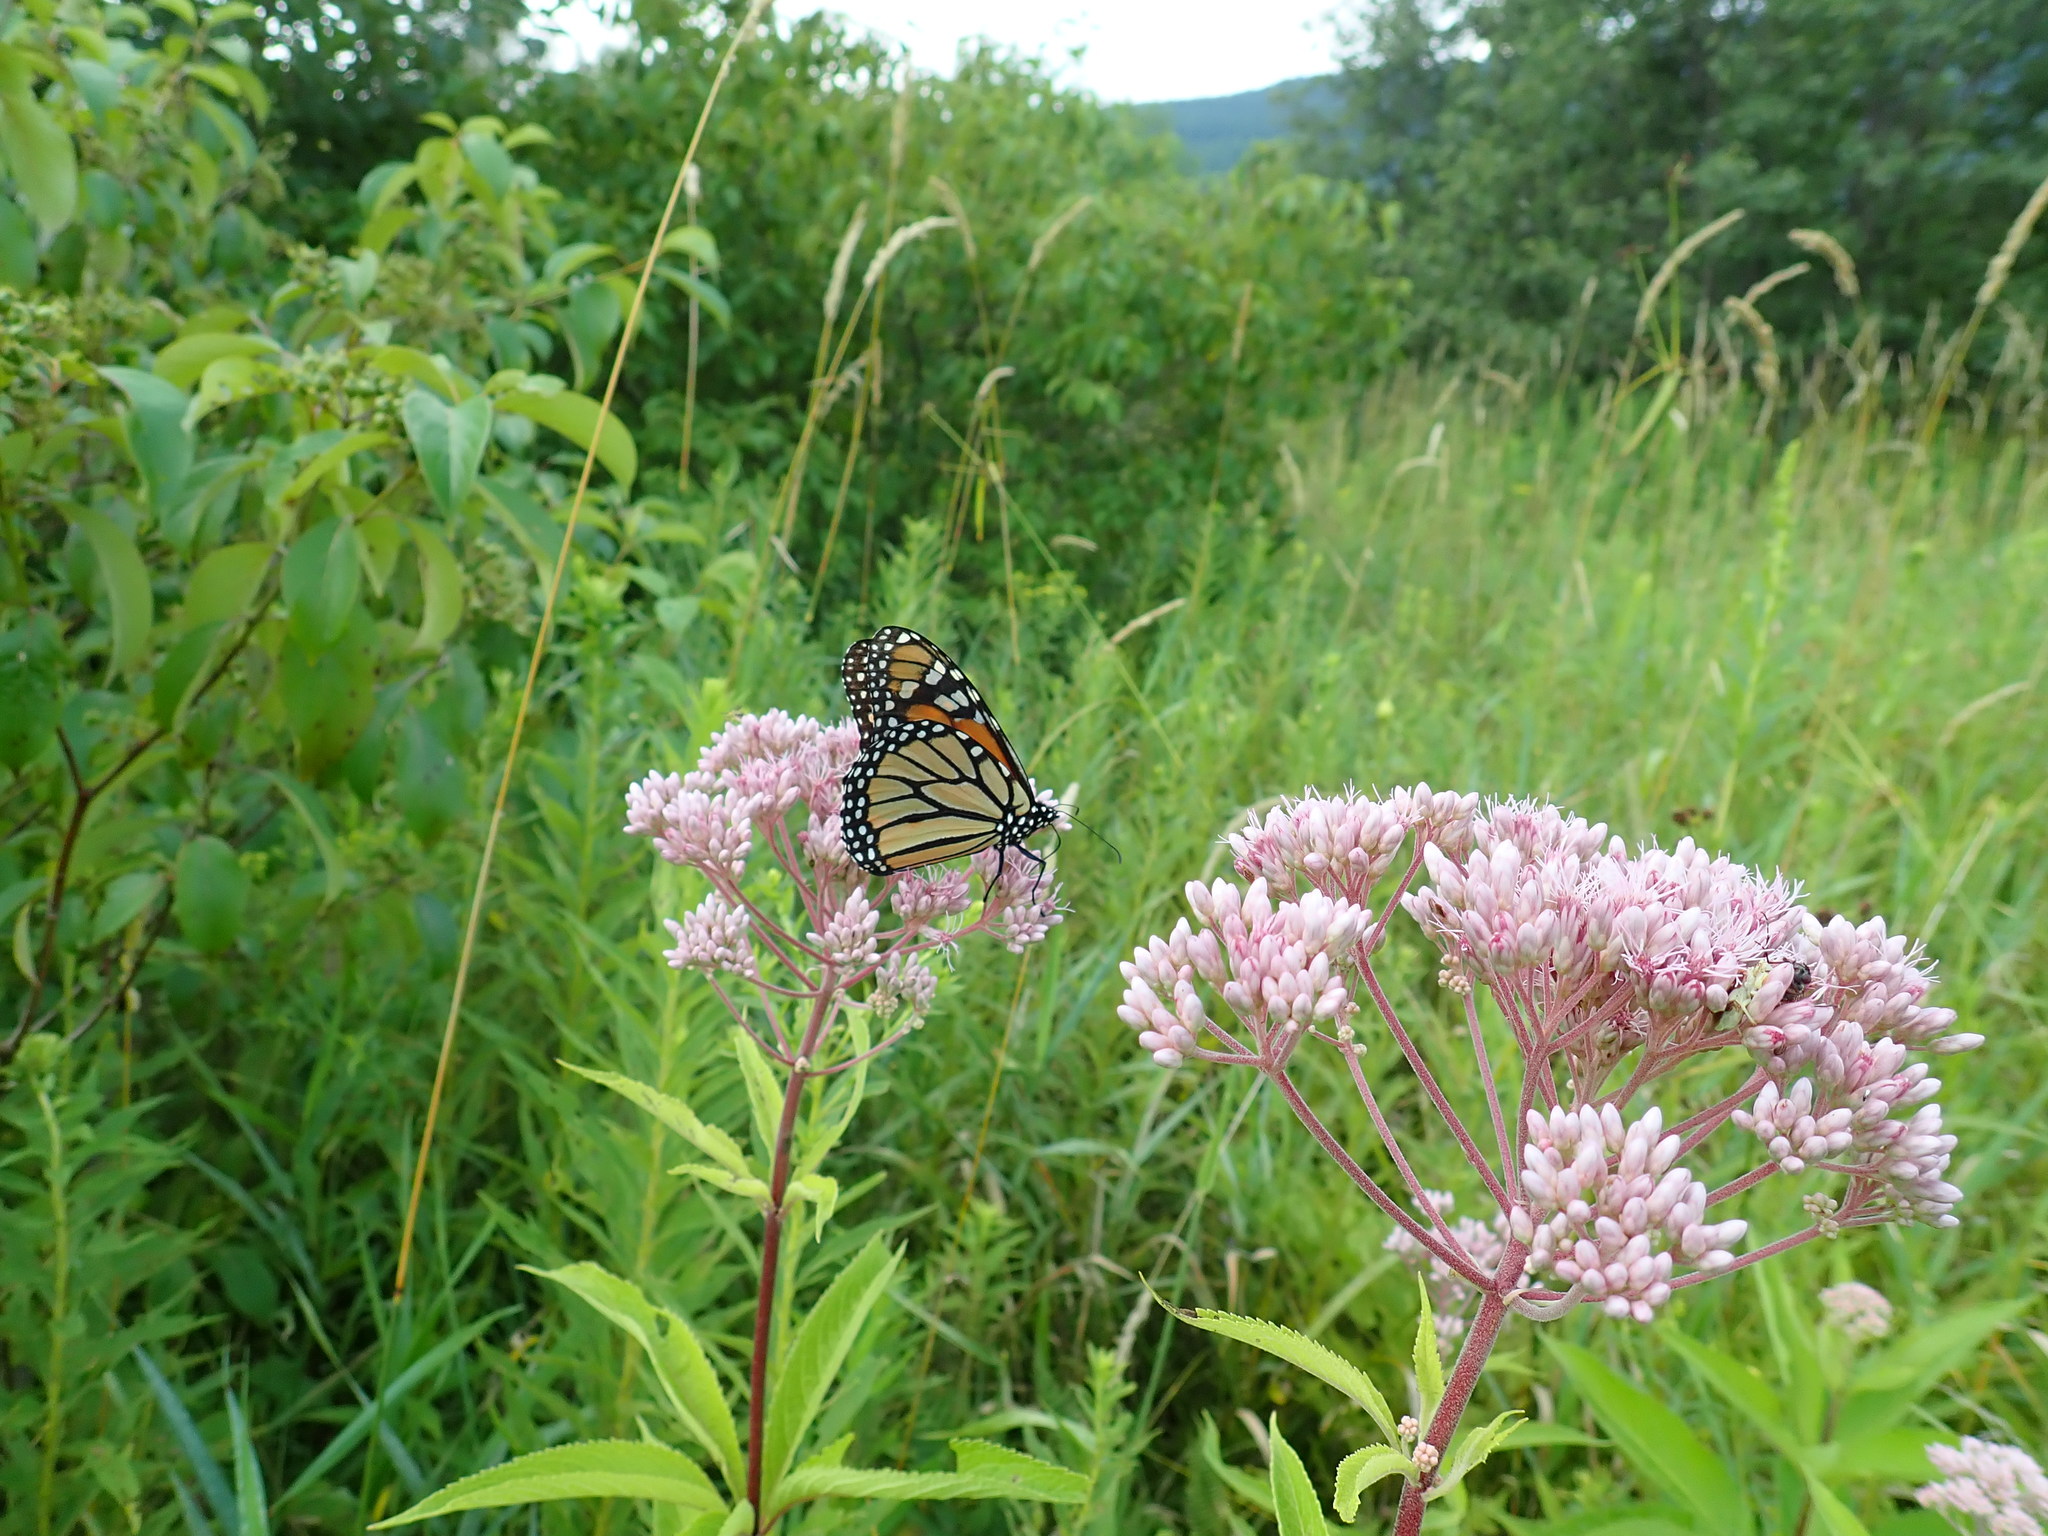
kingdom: Animalia
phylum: Arthropoda
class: Insecta
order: Lepidoptera
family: Nymphalidae
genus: Danaus
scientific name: Danaus plexippus
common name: Monarch
